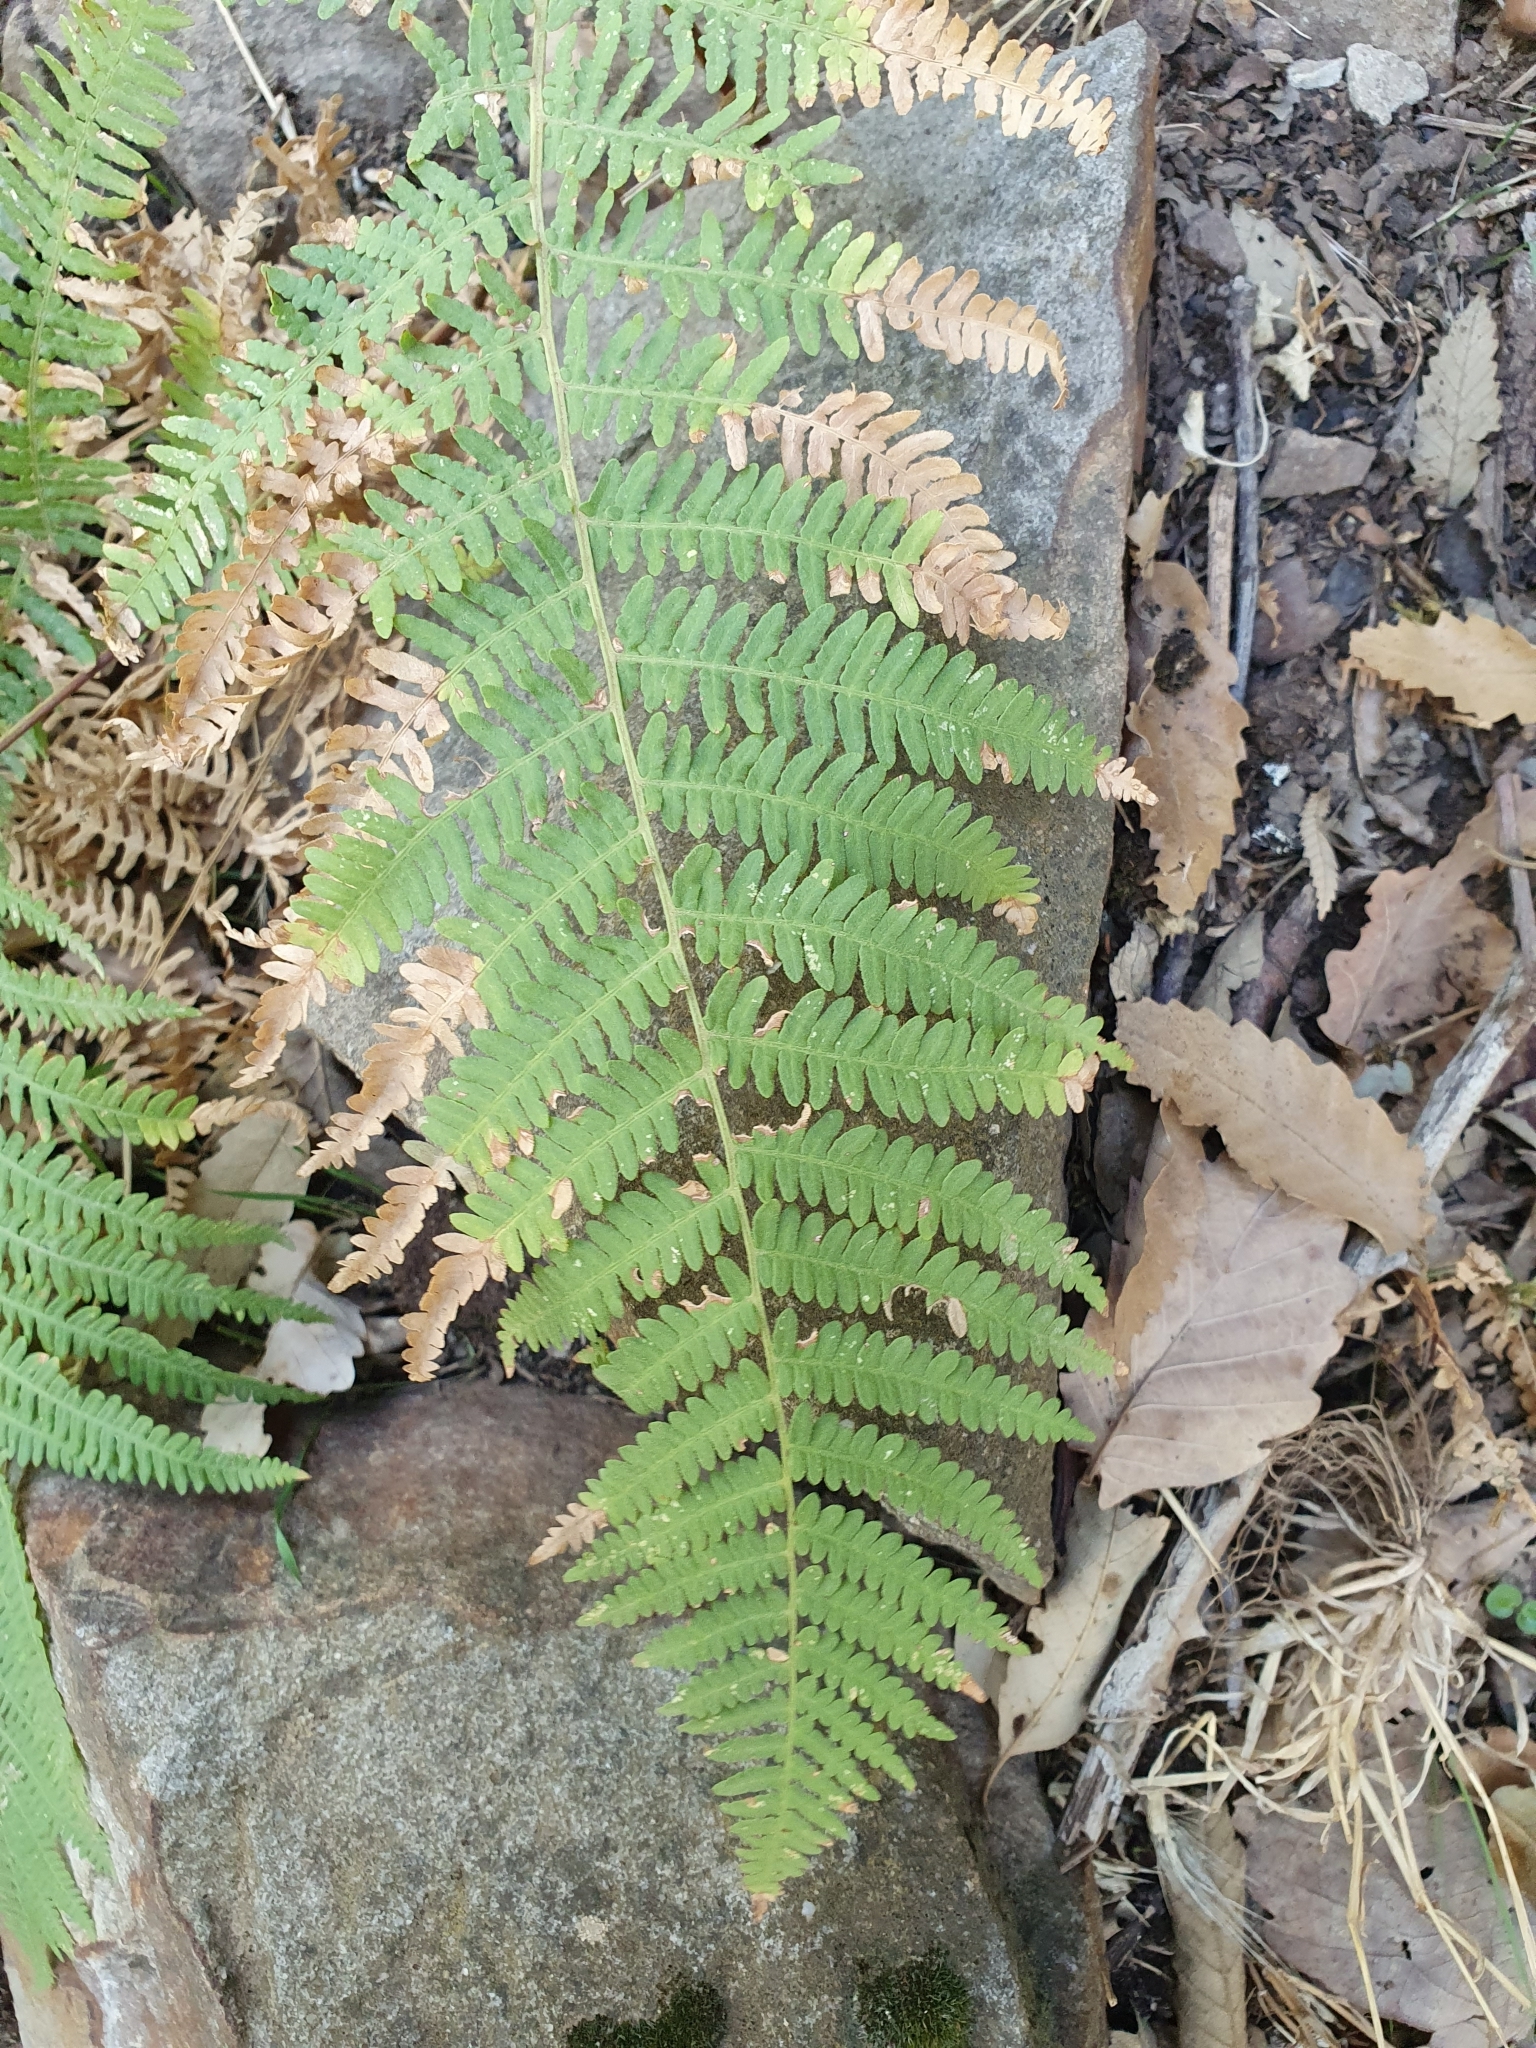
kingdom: Plantae
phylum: Tracheophyta
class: Polypodiopsida
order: Polypodiales
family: Dennstaedtiaceae
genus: Pteridium
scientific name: Pteridium aquilinum
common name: Bracken
